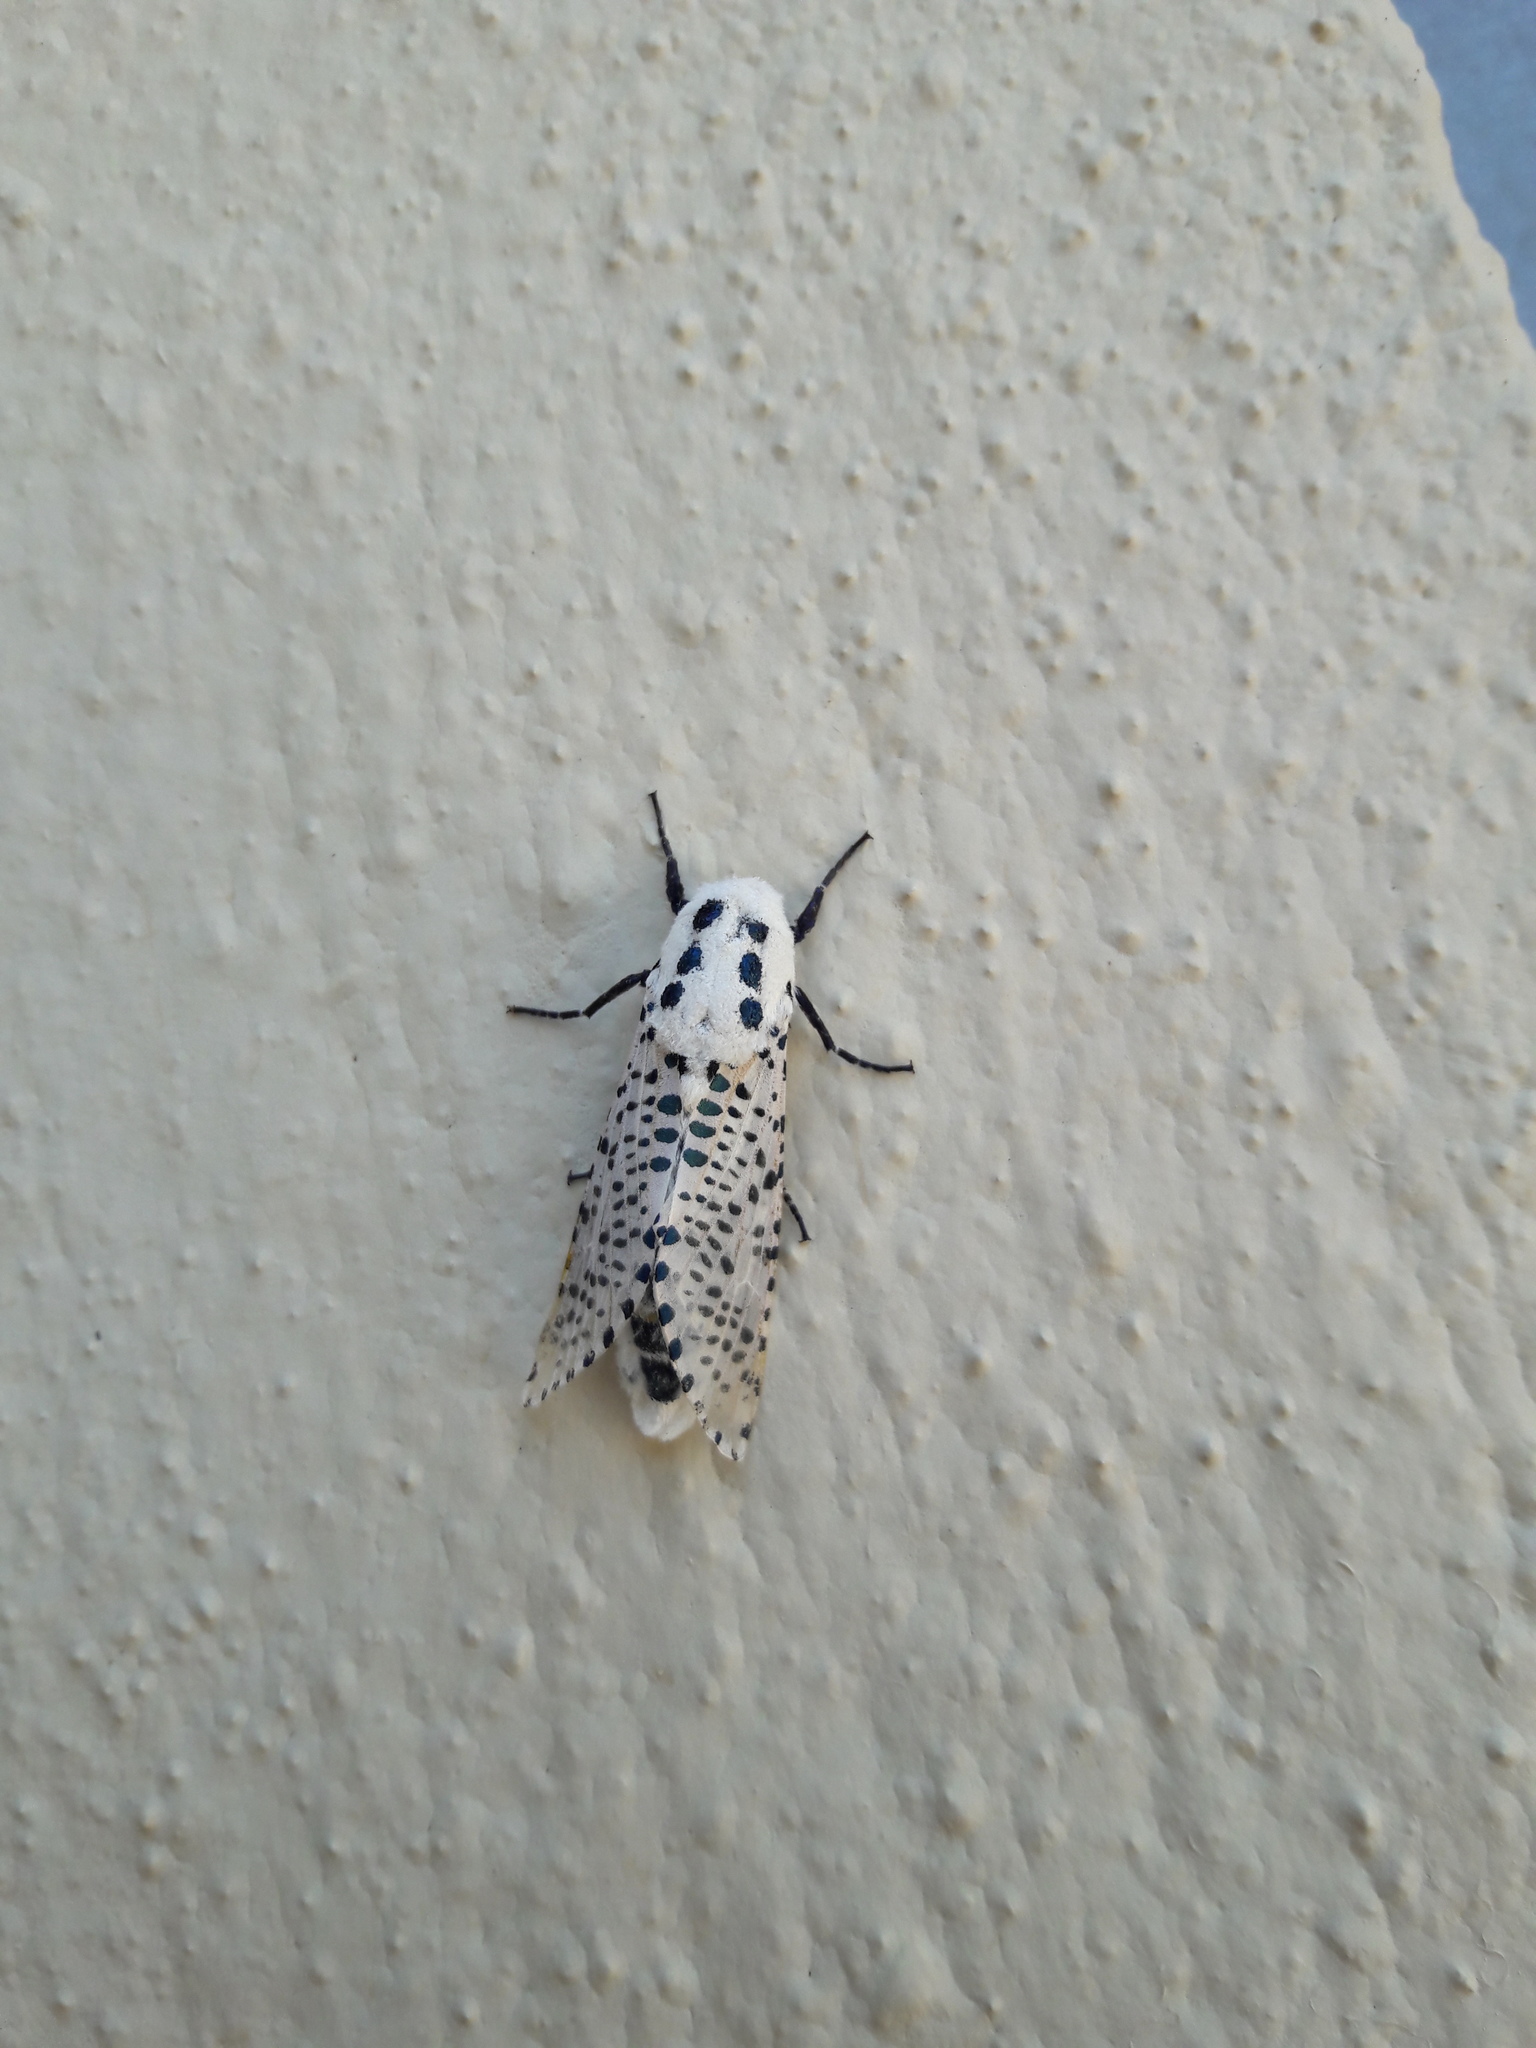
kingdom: Animalia
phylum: Arthropoda
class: Insecta
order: Lepidoptera
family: Cossidae
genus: Zeuzera
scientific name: Zeuzera pyrina
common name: Leopard moth
